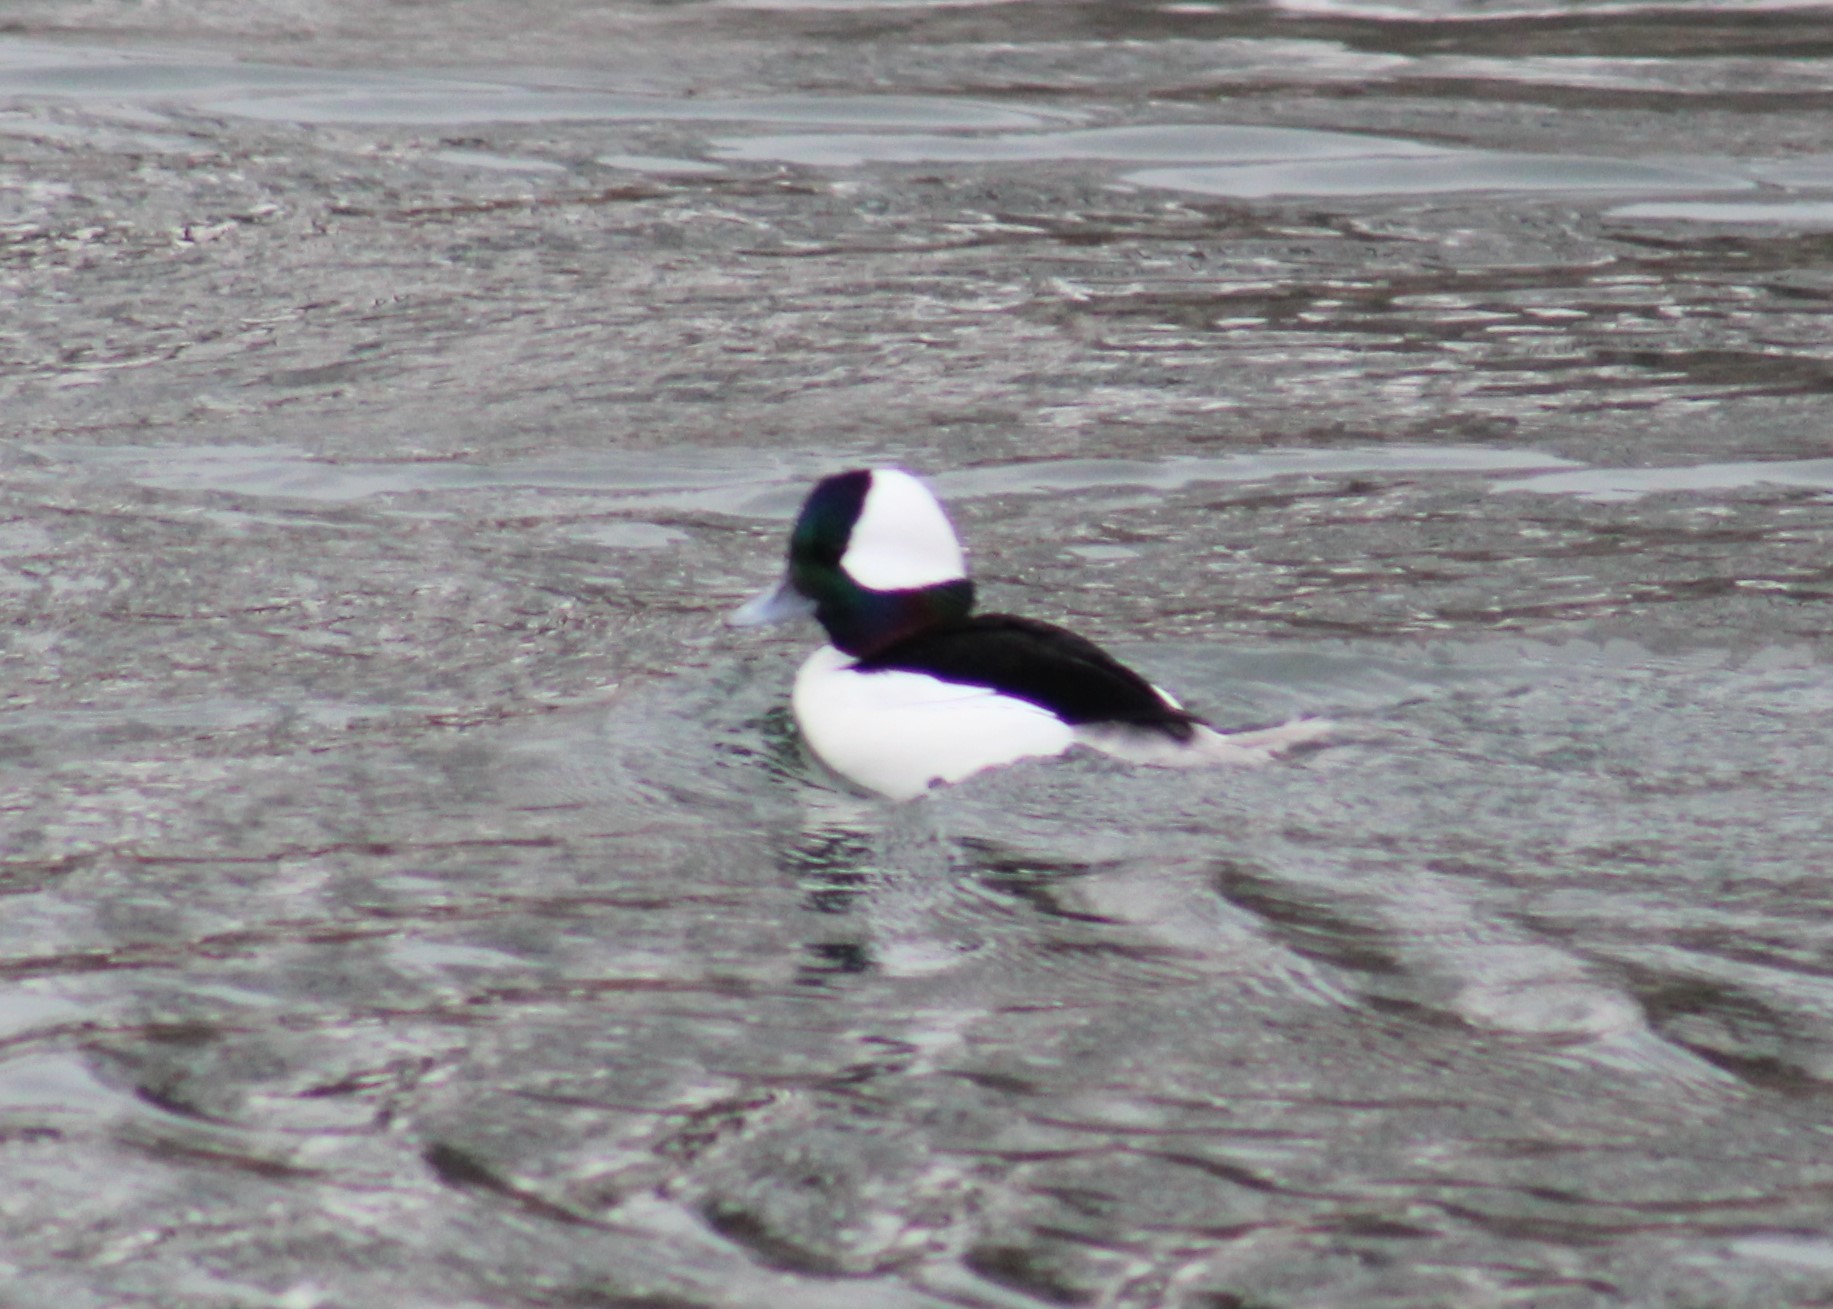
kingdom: Animalia
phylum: Chordata
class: Aves
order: Anseriformes
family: Anatidae
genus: Bucephala
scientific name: Bucephala albeola
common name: Bufflehead
